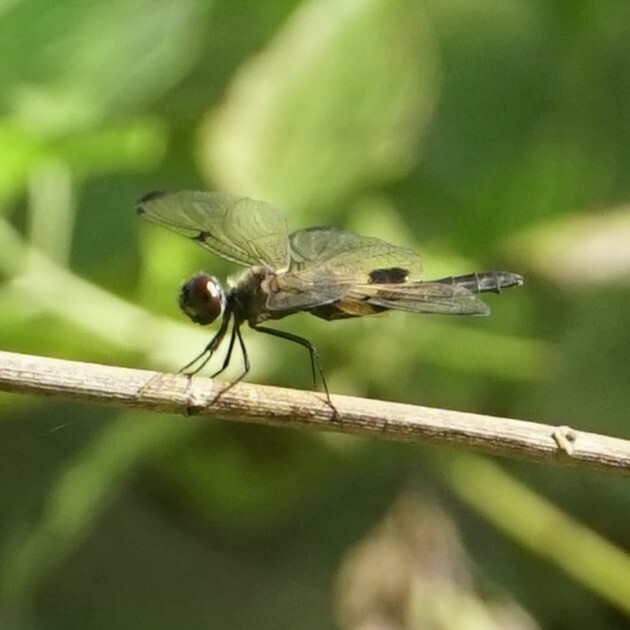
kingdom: Animalia
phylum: Arthropoda
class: Insecta
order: Odonata
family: Libellulidae
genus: Rhyothemis
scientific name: Rhyothemis phyllis
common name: Yellow-barred flutterer
